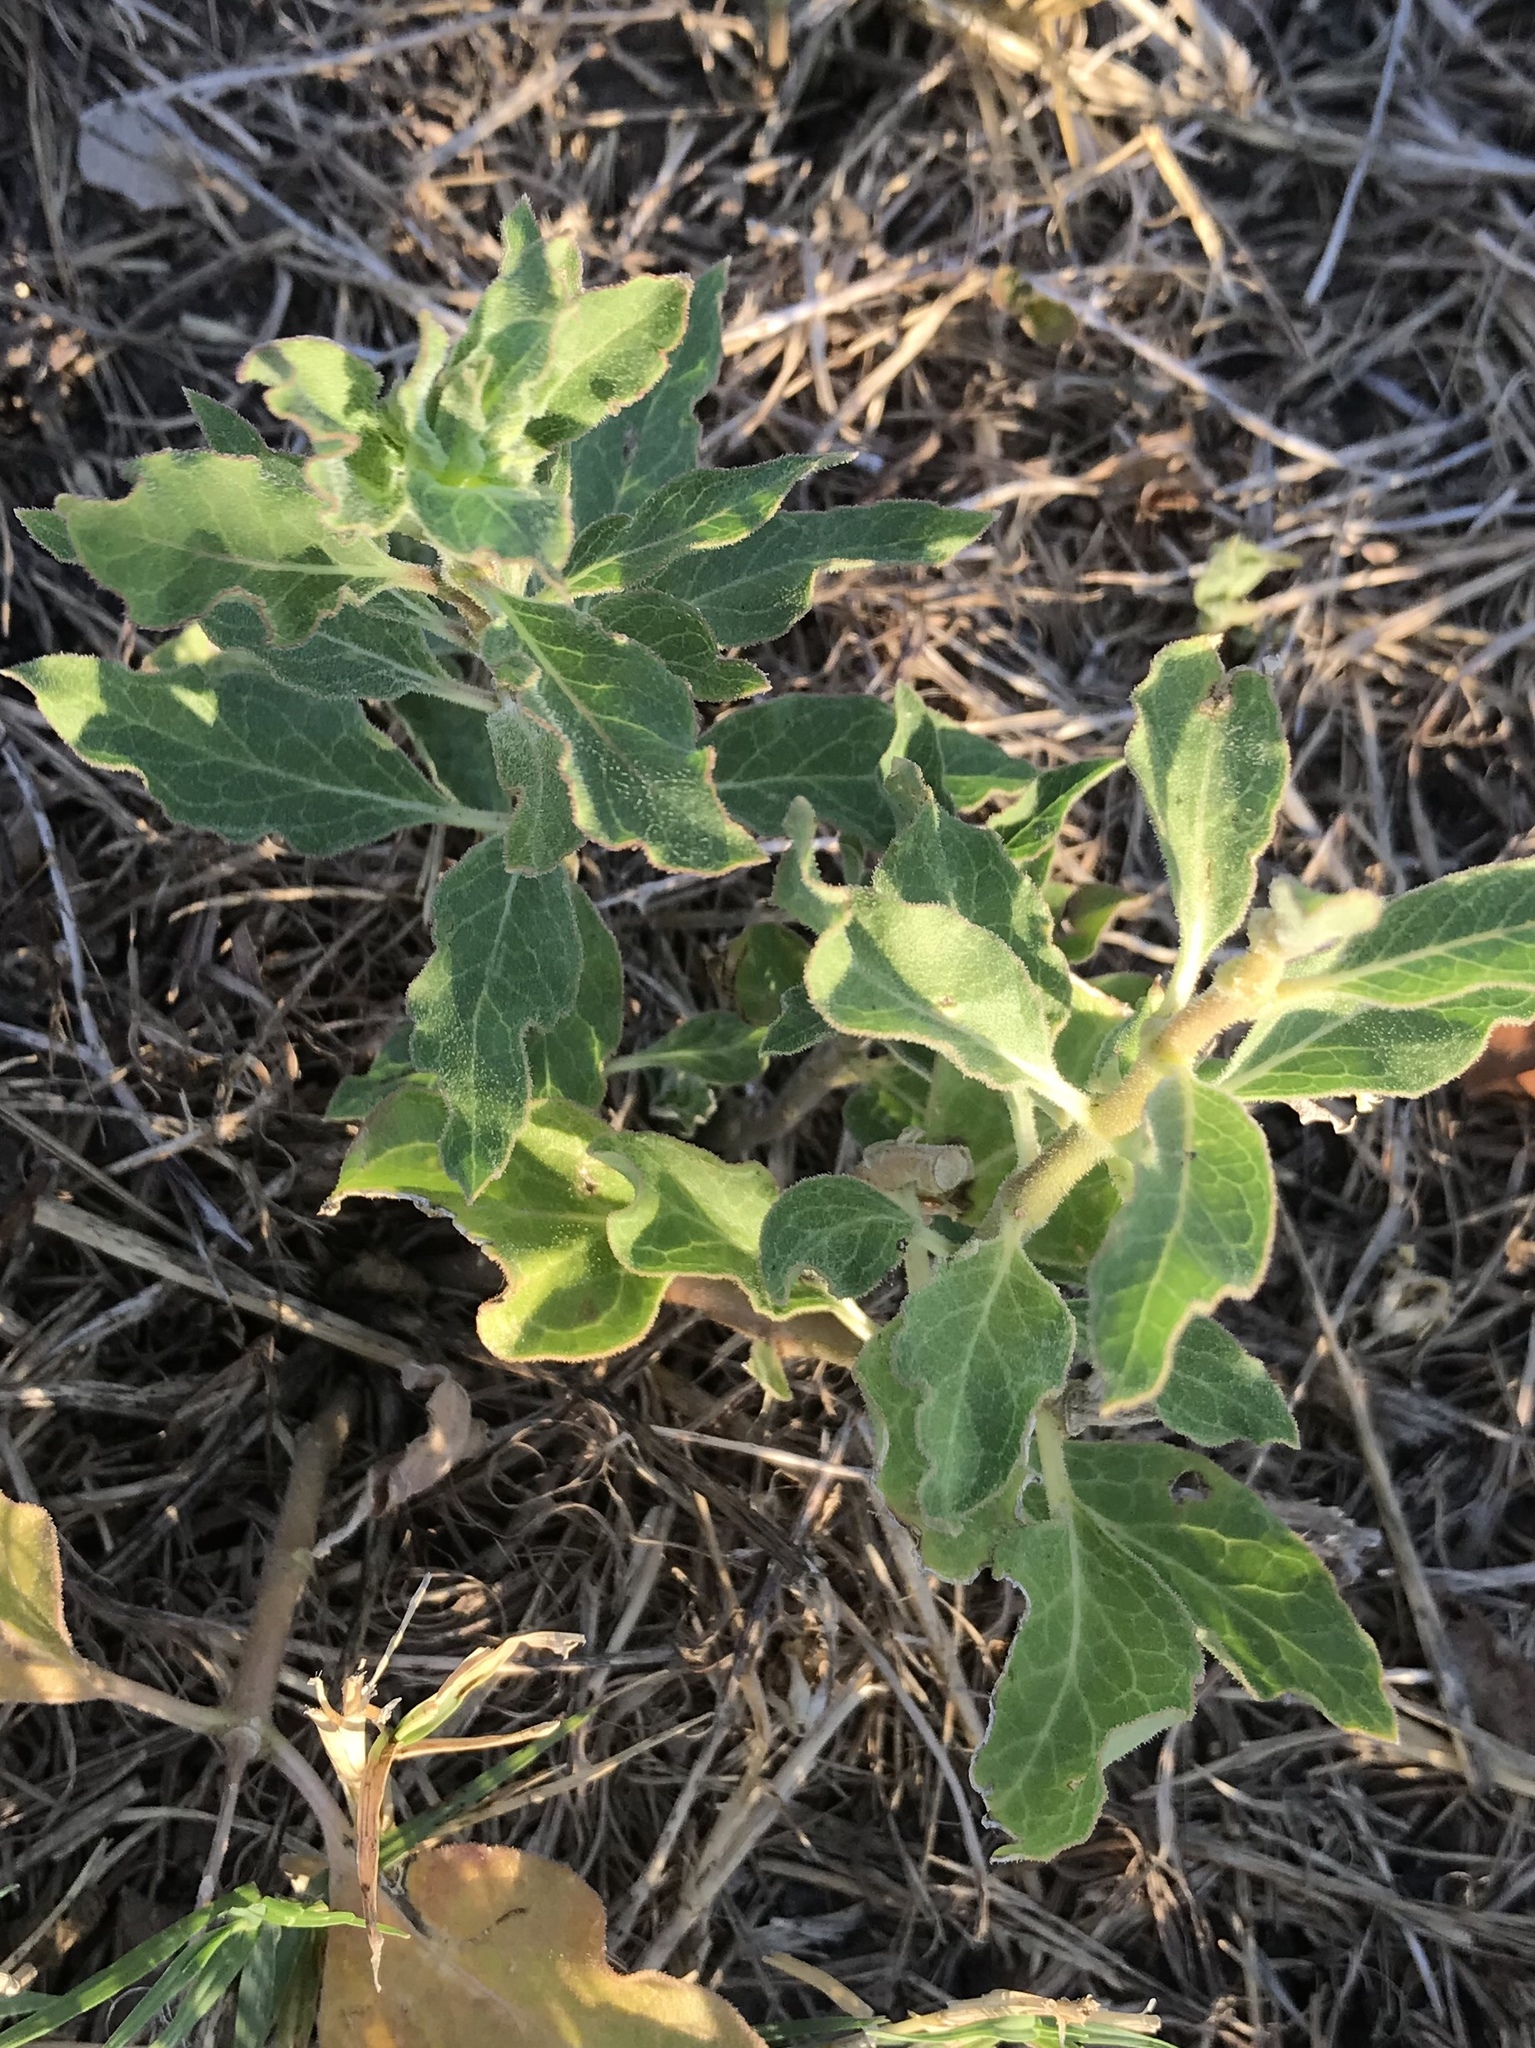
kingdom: Plantae
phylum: Tracheophyta
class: Magnoliopsida
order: Gentianales
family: Apocynaceae
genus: Asclepias
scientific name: Asclepias oenotheroides
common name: Zizotes milkweed
